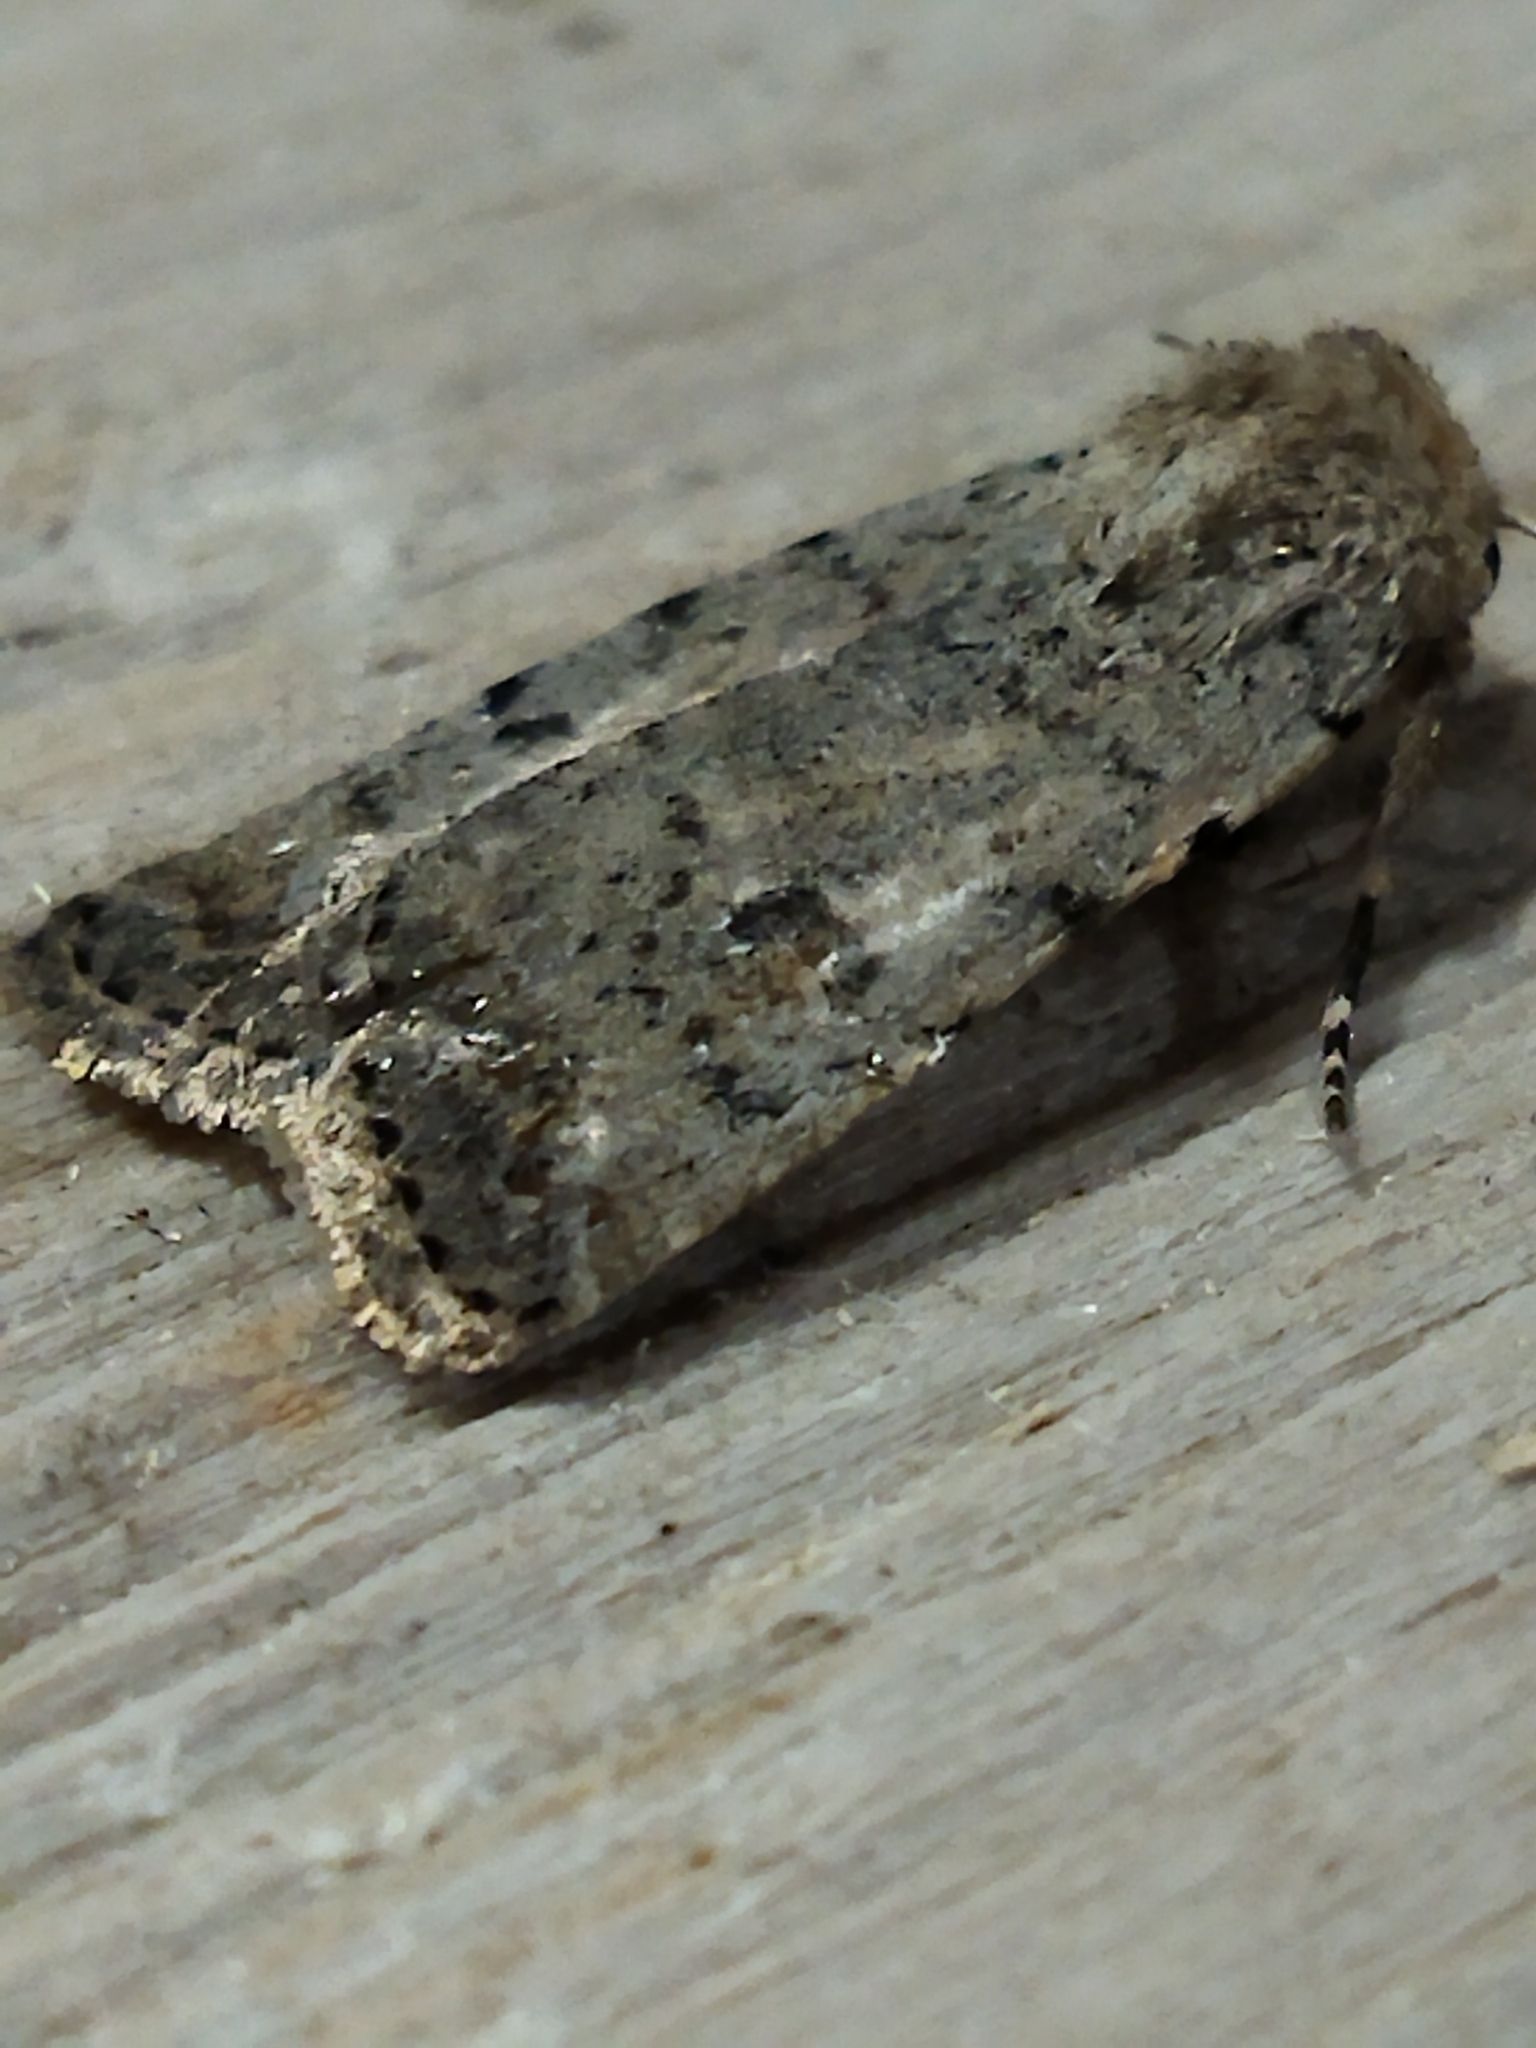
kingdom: Animalia
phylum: Arthropoda
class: Insecta
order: Lepidoptera
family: Noctuidae
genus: Caradrina
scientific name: Caradrina clavipalpis
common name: Pale mottled willow
